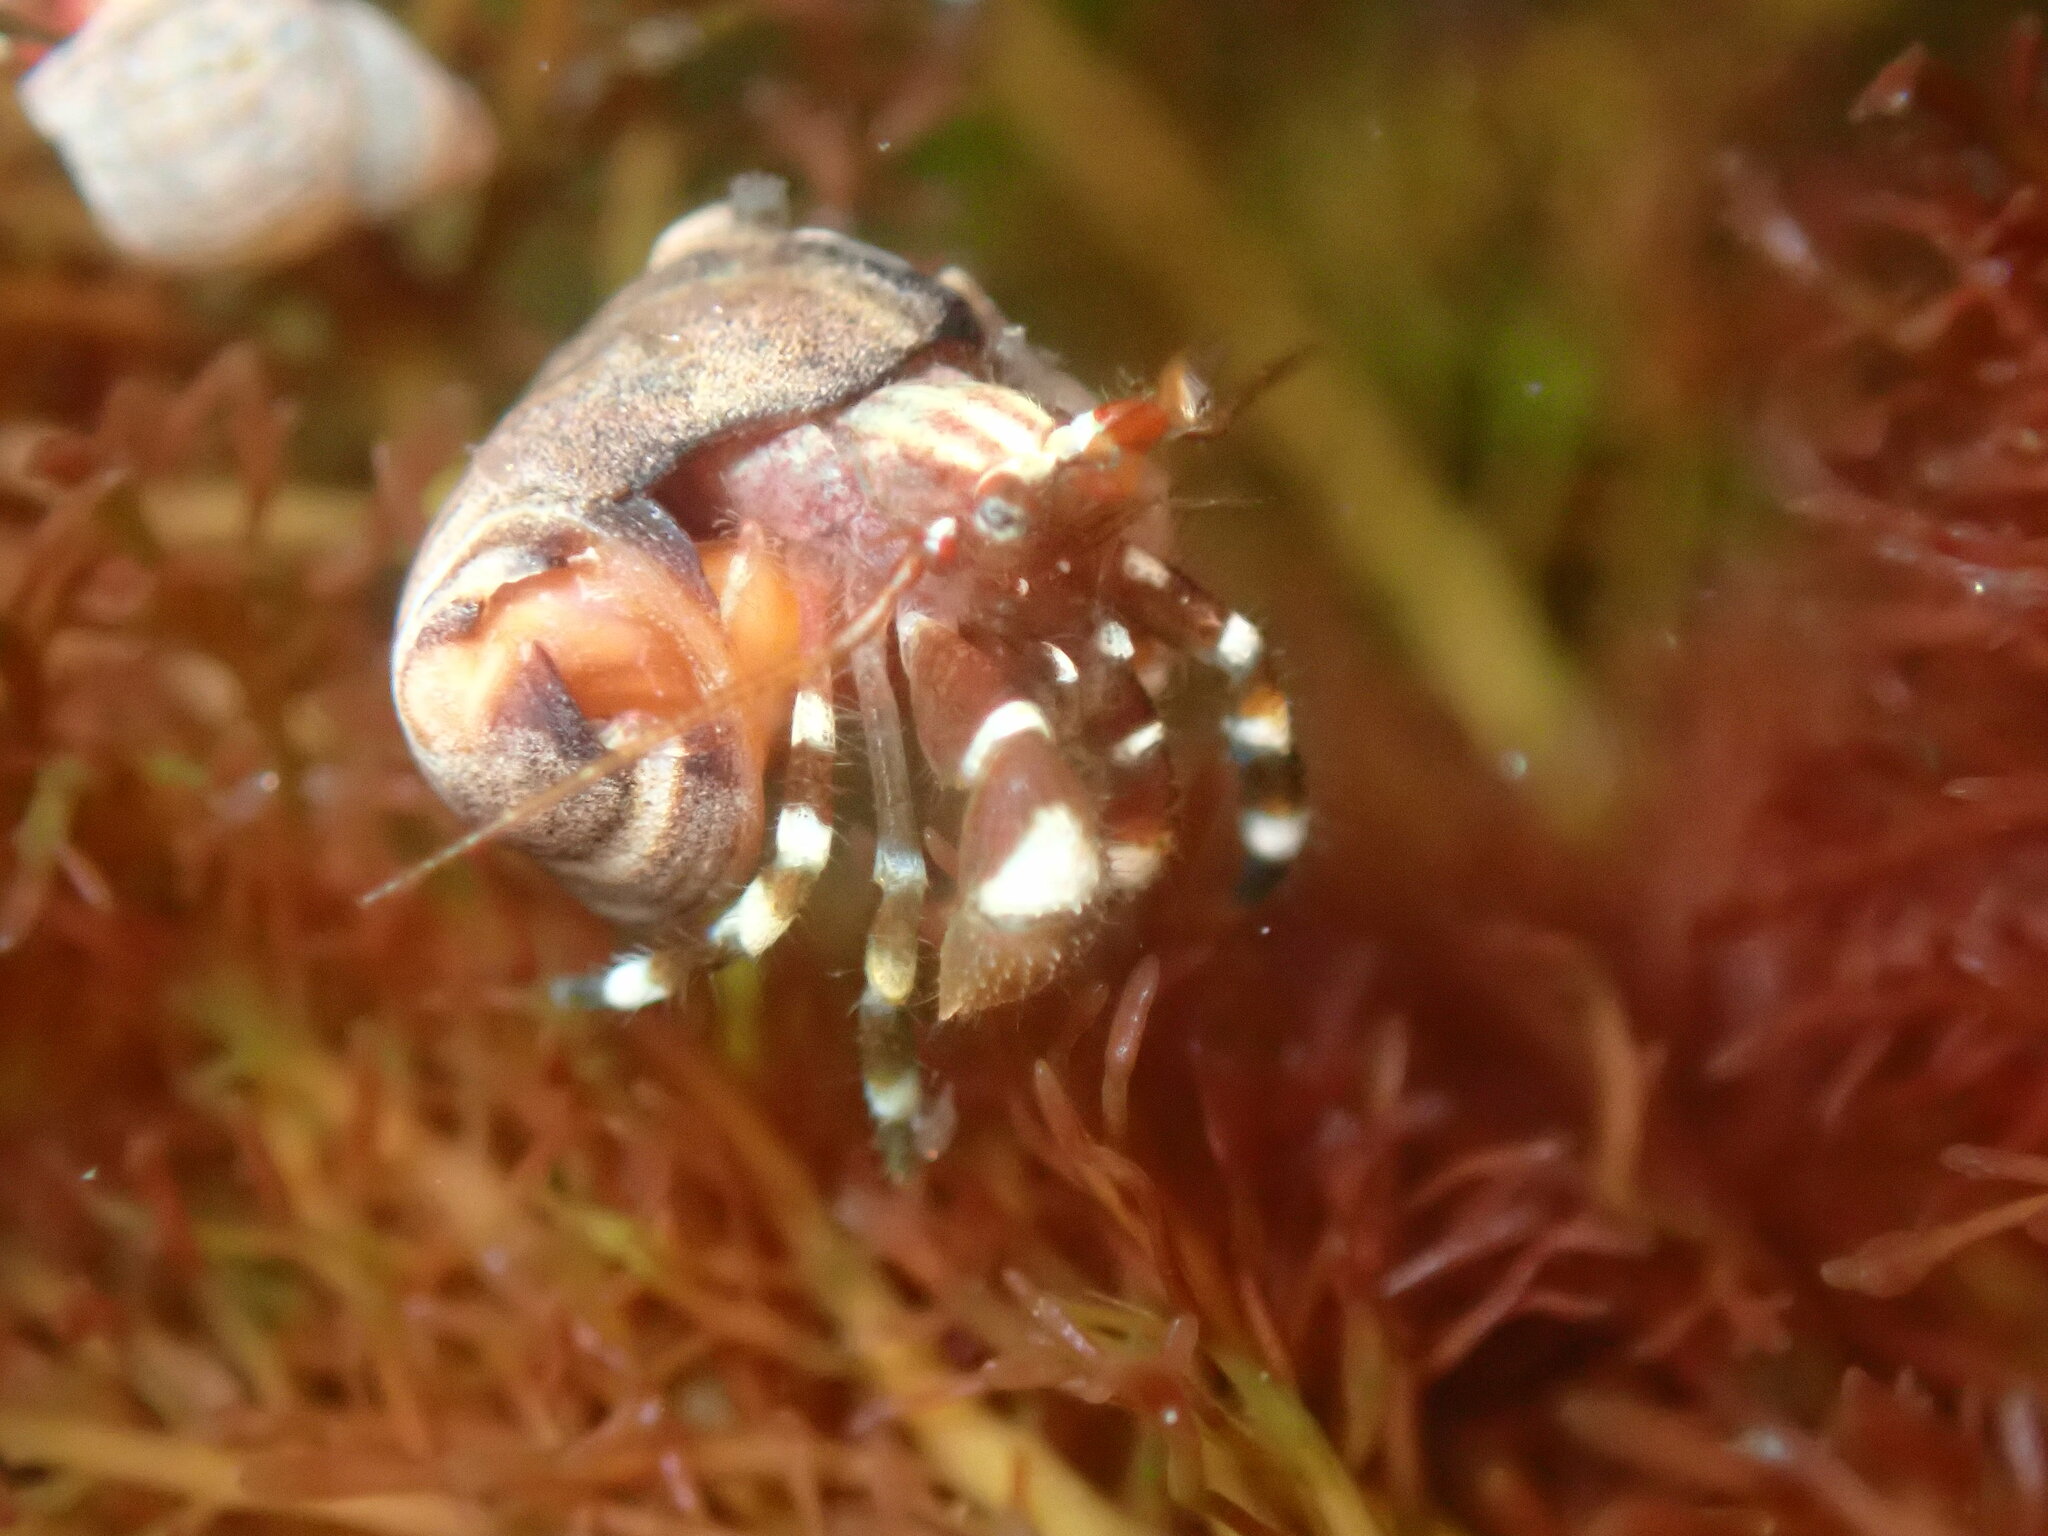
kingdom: Animalia
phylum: Arthropoda
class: Malacostraca
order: Decapoda
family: Paguridae
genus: Pagurus
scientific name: Pagurus samuelis
